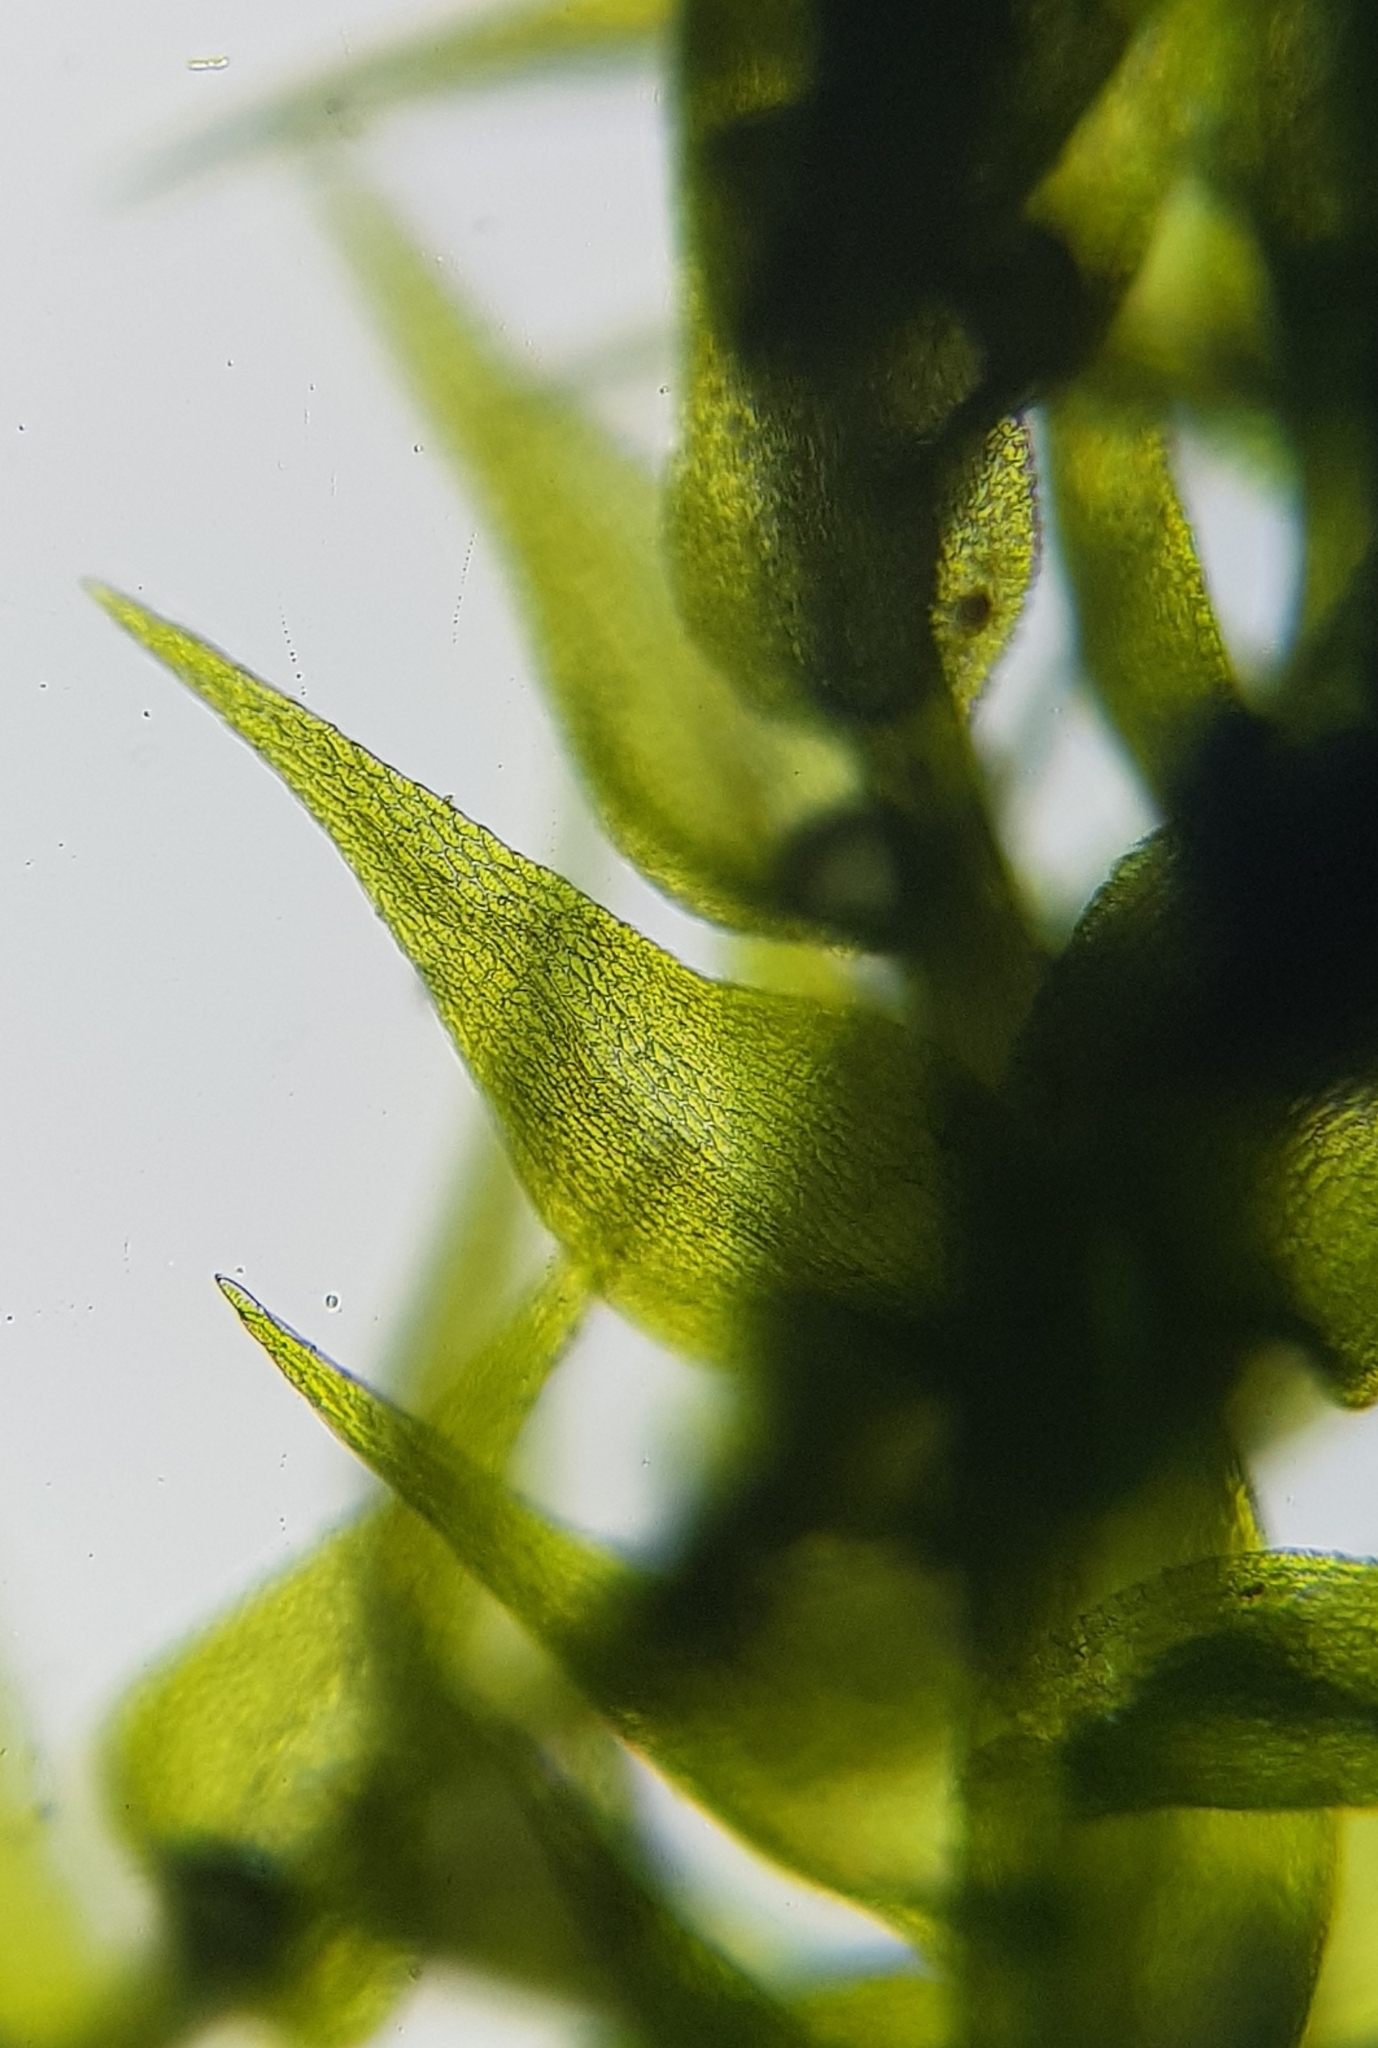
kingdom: Plantae
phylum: Bryophyta
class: Bryopsida
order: Hypnales
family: Amblystegiaceae
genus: Amblystegium
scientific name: Amblystegium serpens
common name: Jurkatzka's feather moss
